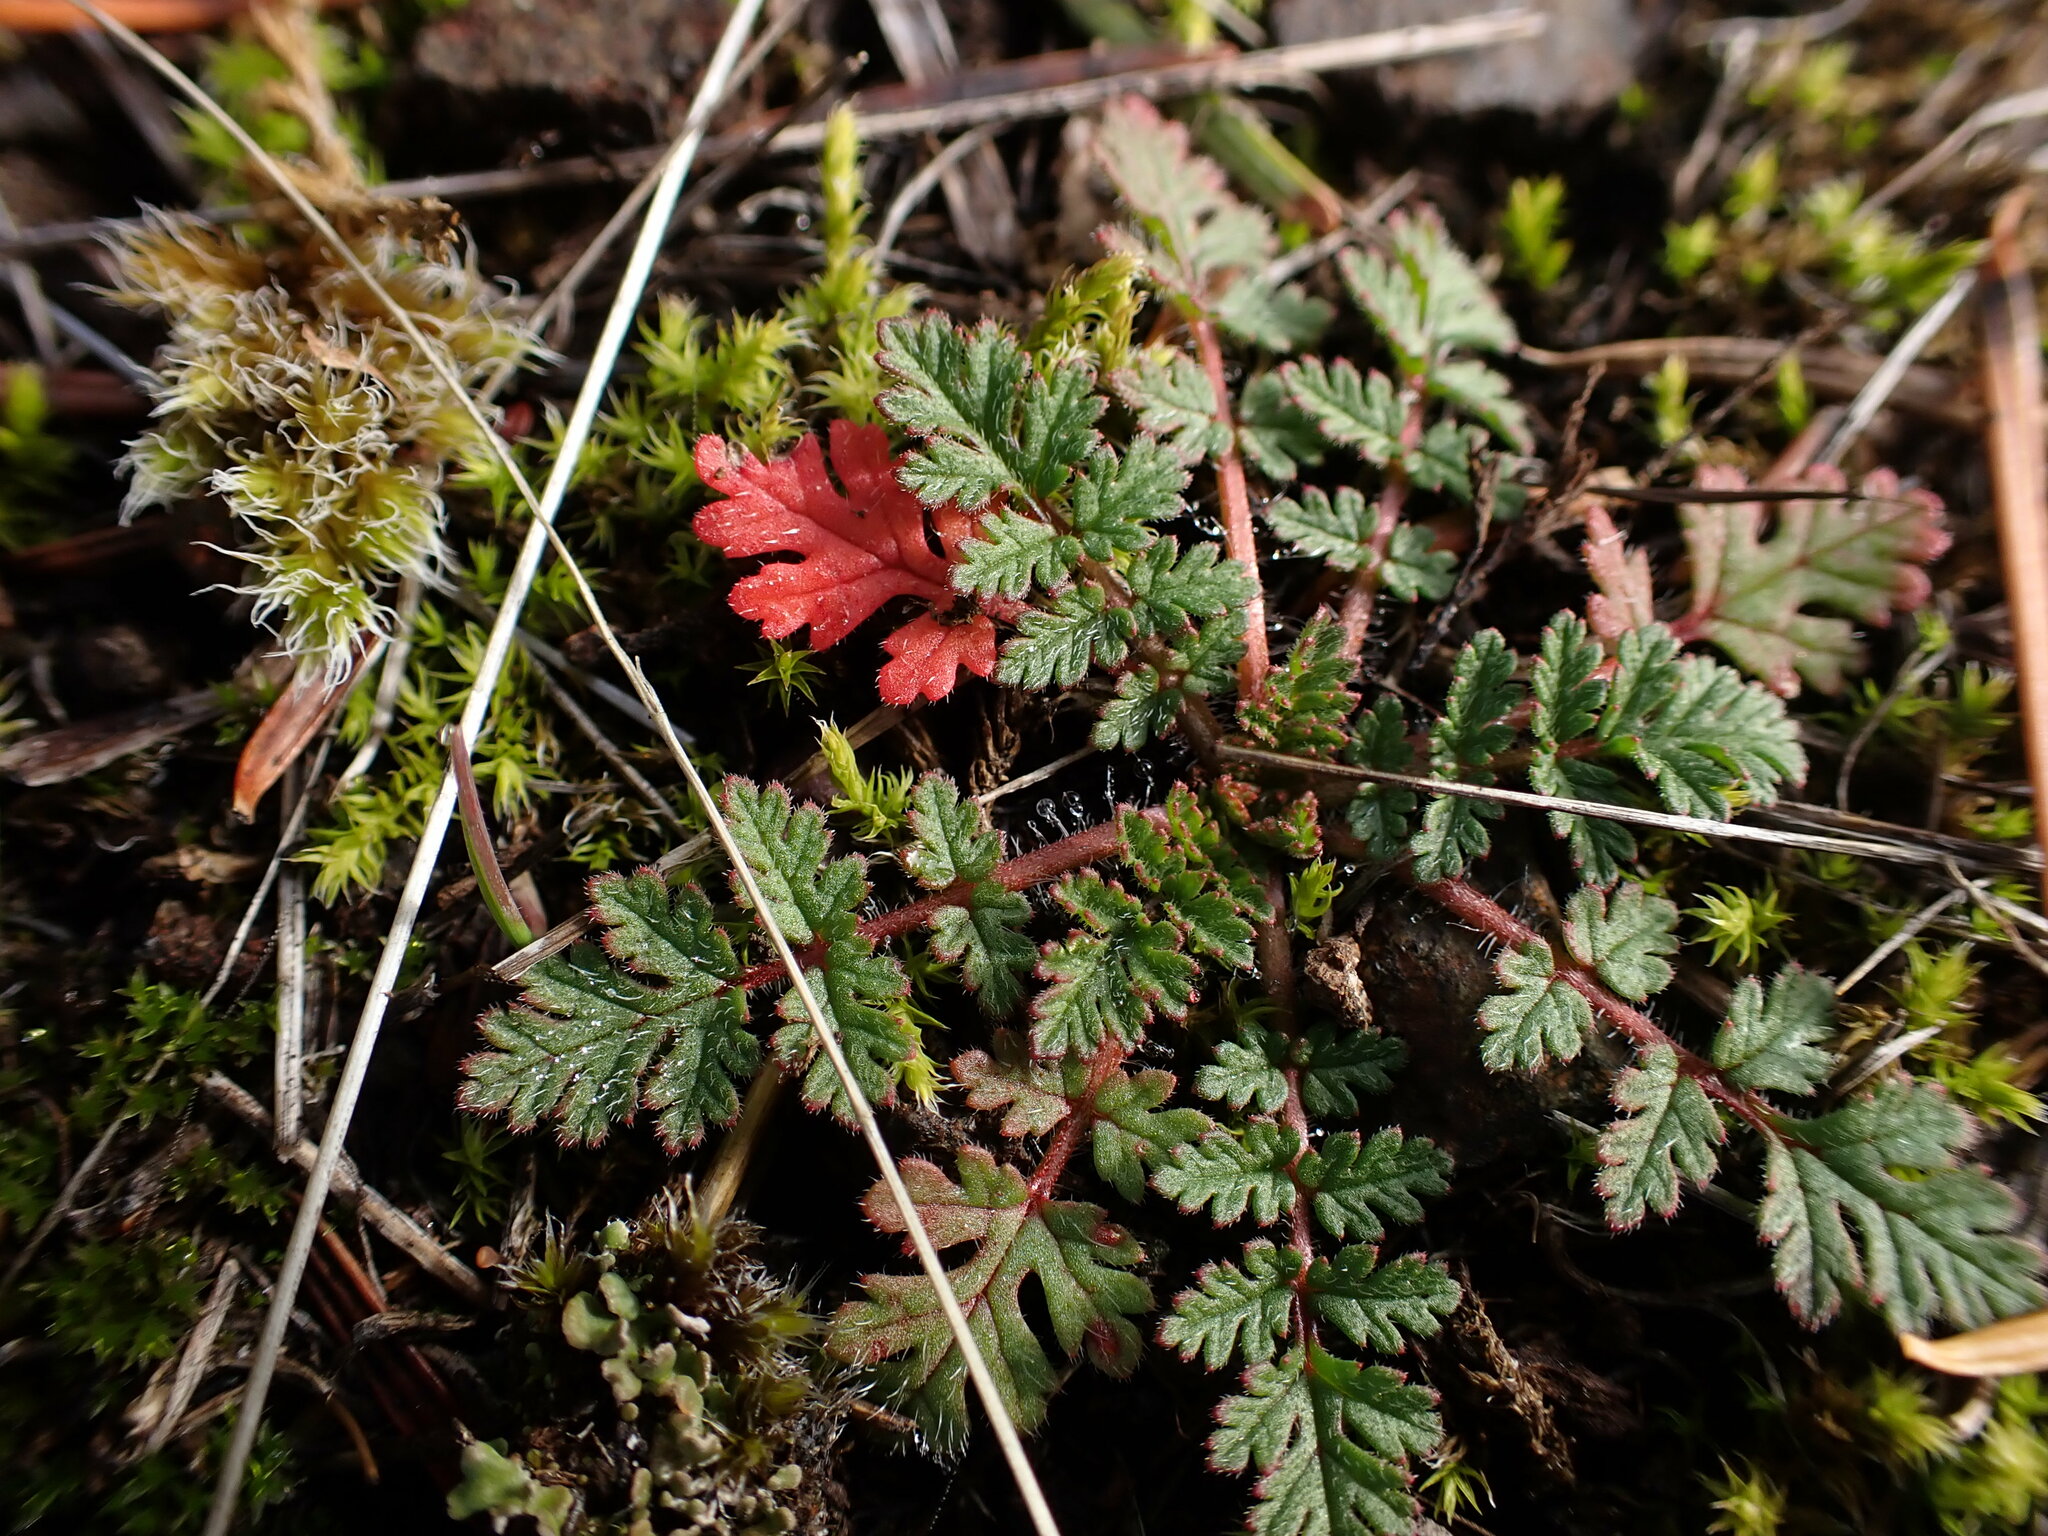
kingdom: Plantae
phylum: Tracheophyta
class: Magnoliopsida
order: Geraniales
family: Geraniaceae
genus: Erodium
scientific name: Erodium cicutarium
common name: Common stork's-bill
